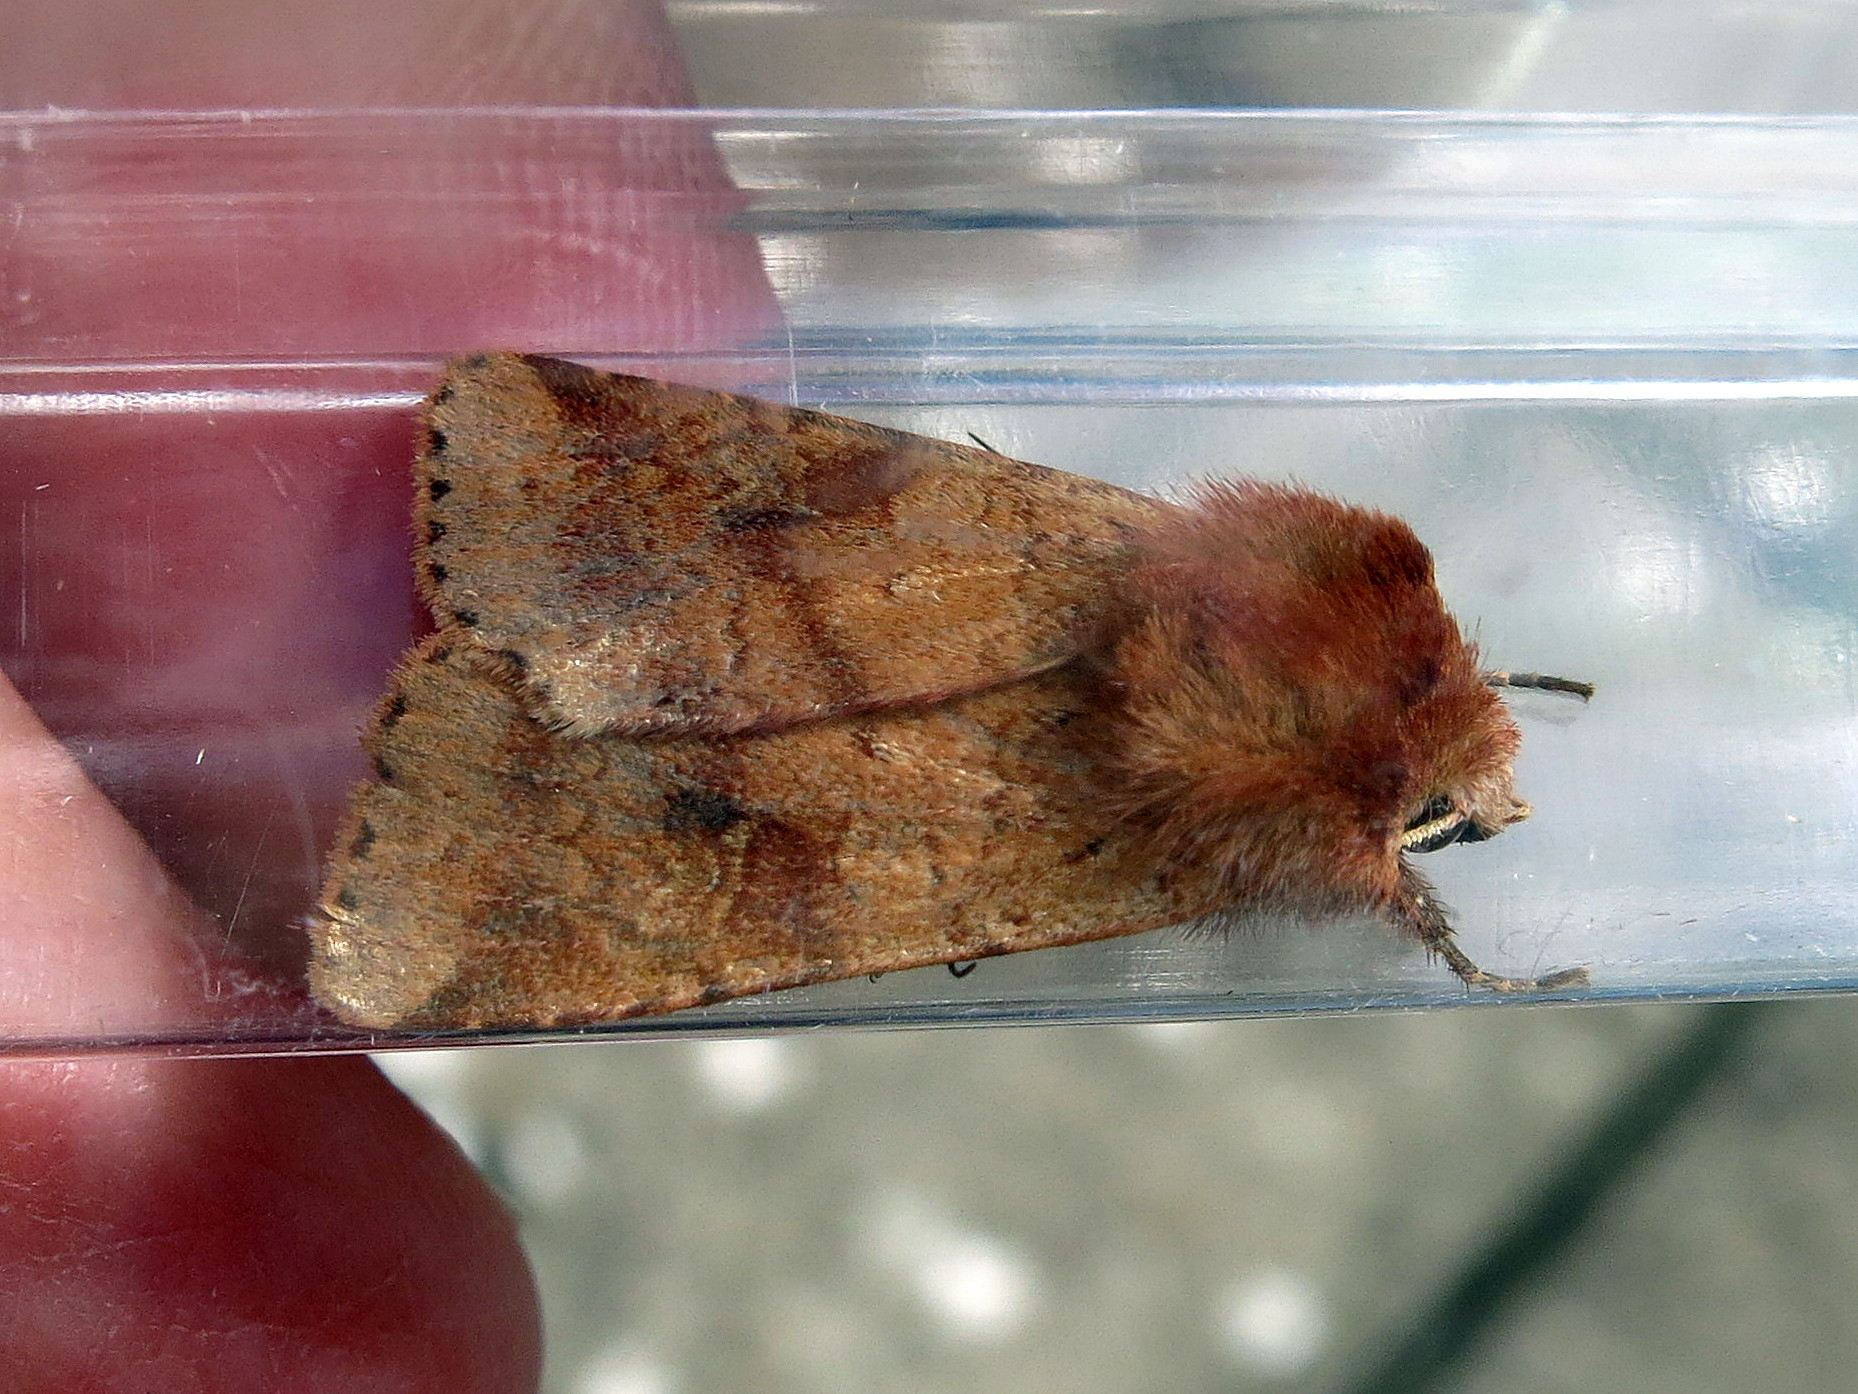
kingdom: Animalia
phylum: Arthropoda
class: Insecta
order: Lepidoptera
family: Noctuidae
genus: Diarsia
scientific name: Diarsia mendica
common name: Ingrailed clay
